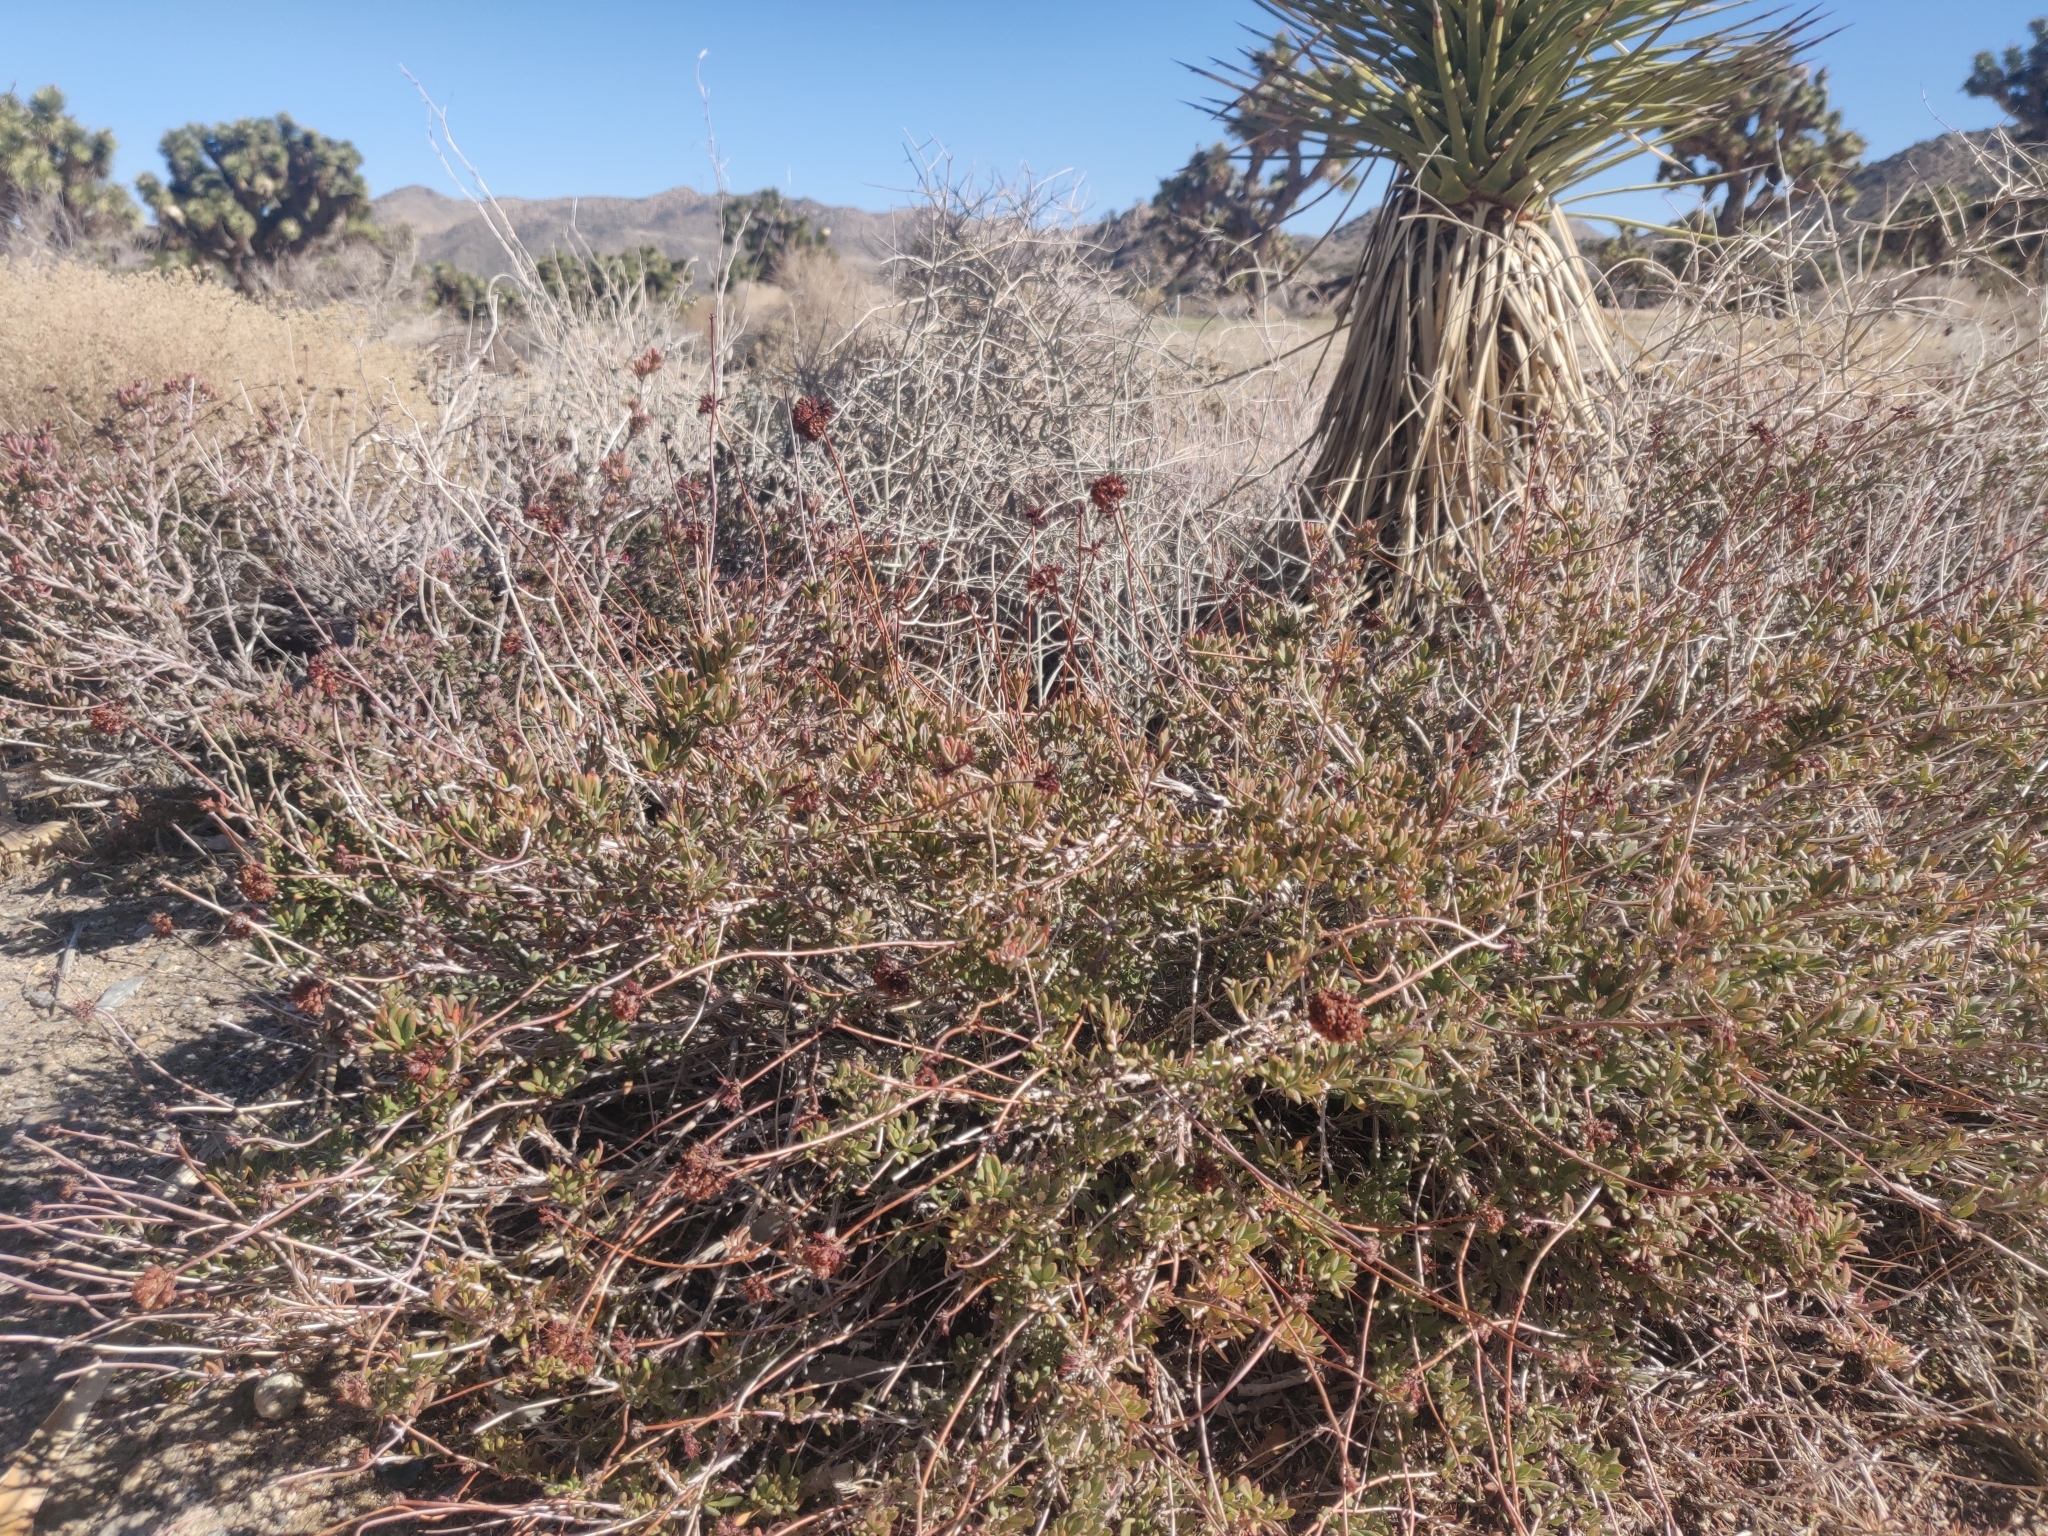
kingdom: Plantae
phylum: Tracheophyta
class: Magnoliopsida
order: Caryophyllales
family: Polygonaceae
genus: Eriogonum
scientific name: Eriogonum fasciculatum
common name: California wild buckwheat
